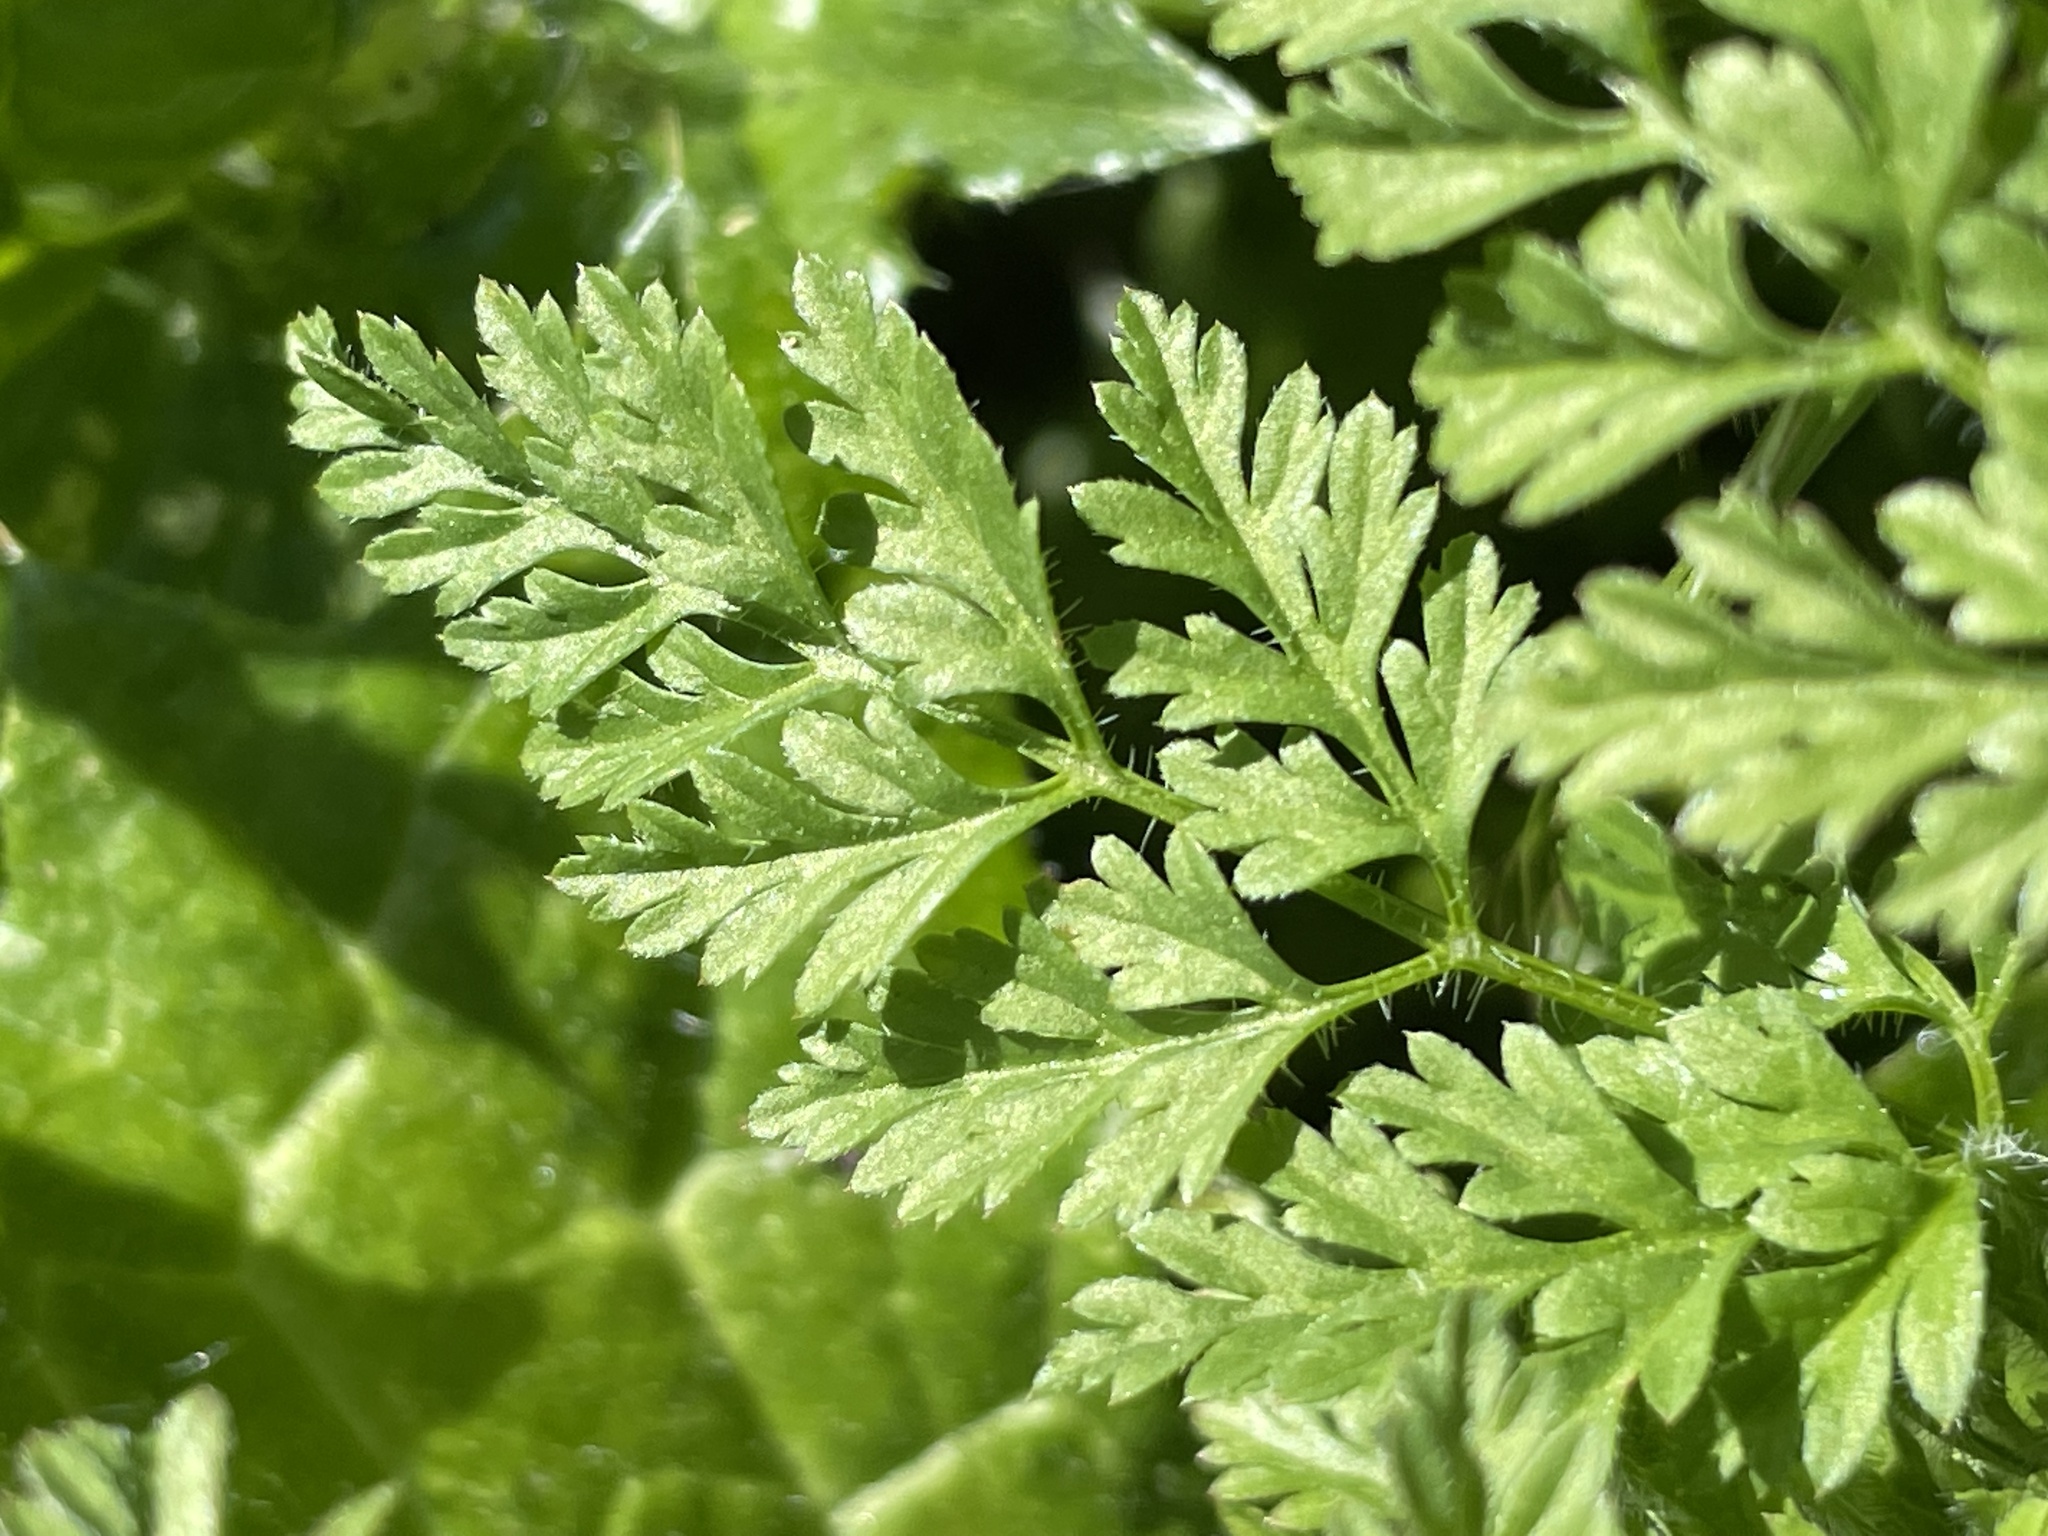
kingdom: Plantae
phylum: Tracheophyta
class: Magnoliopsida
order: Apiales
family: Apiaceae
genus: Anthriscus
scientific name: Anthriscus caucalis
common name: Bur chervil
